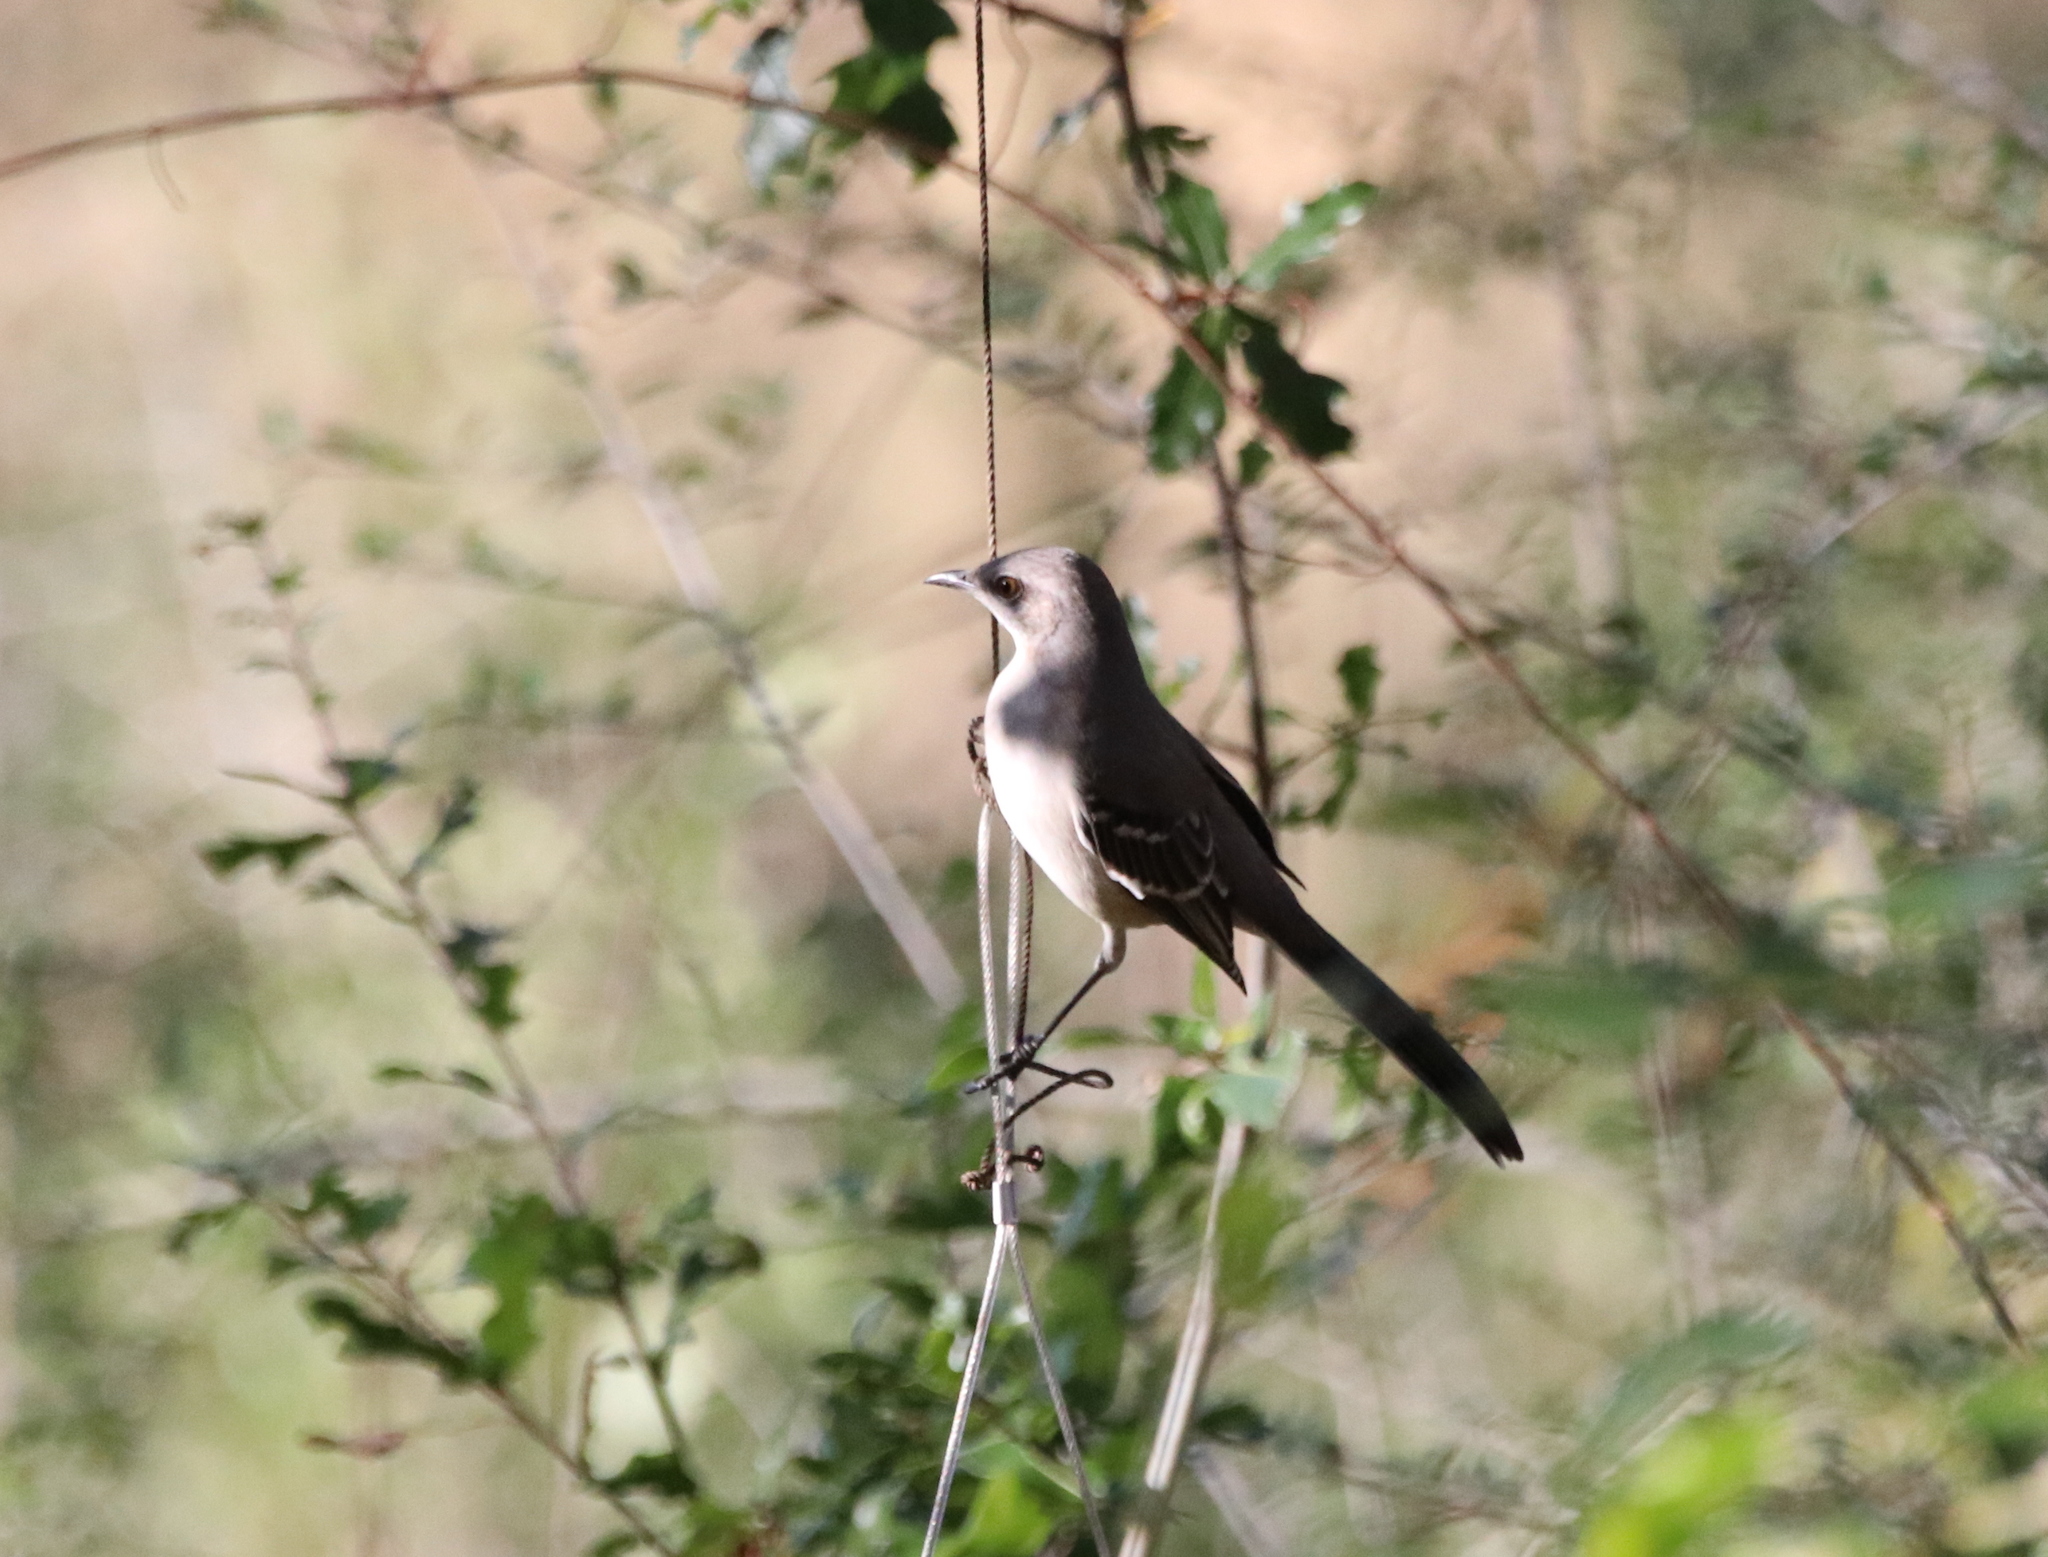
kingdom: Animalia
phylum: Chordata
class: Aves
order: Passeriformes
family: Mimidae
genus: Mimus
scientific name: Mimus polyglottos
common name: Northern mockingbird
